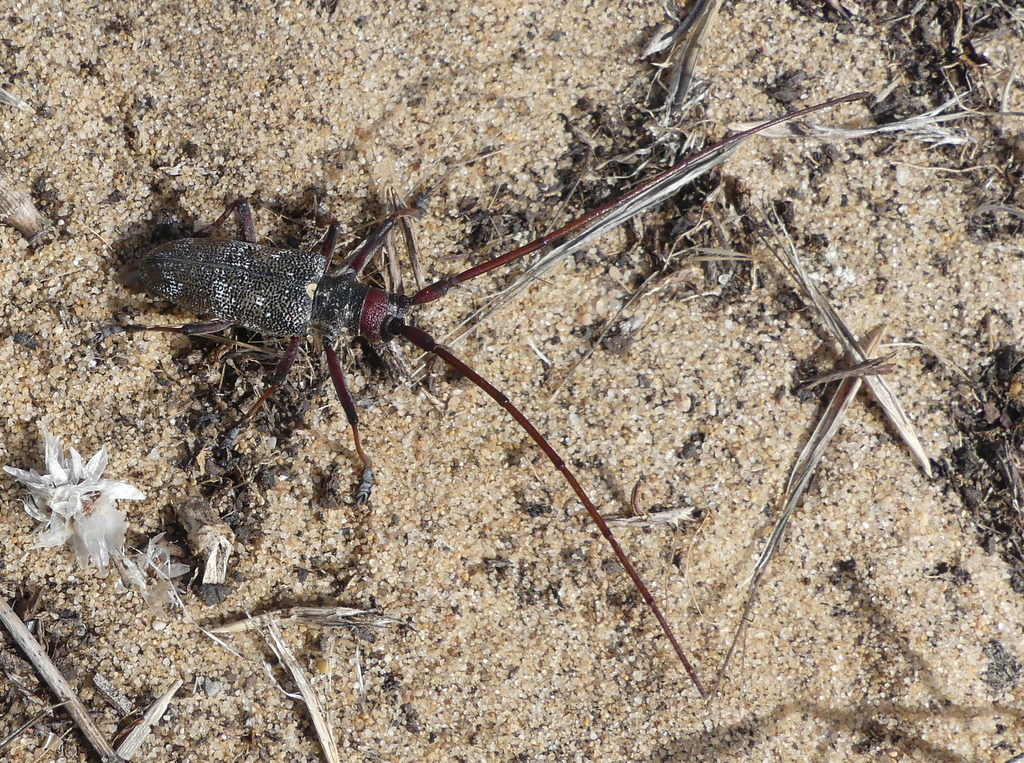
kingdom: Animalia
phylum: Arthropoda
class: Insecta
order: Coleoptera
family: Cerambycidae
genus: Monochamus
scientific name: Monochamus galloprovincialis
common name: Pine sawyer
